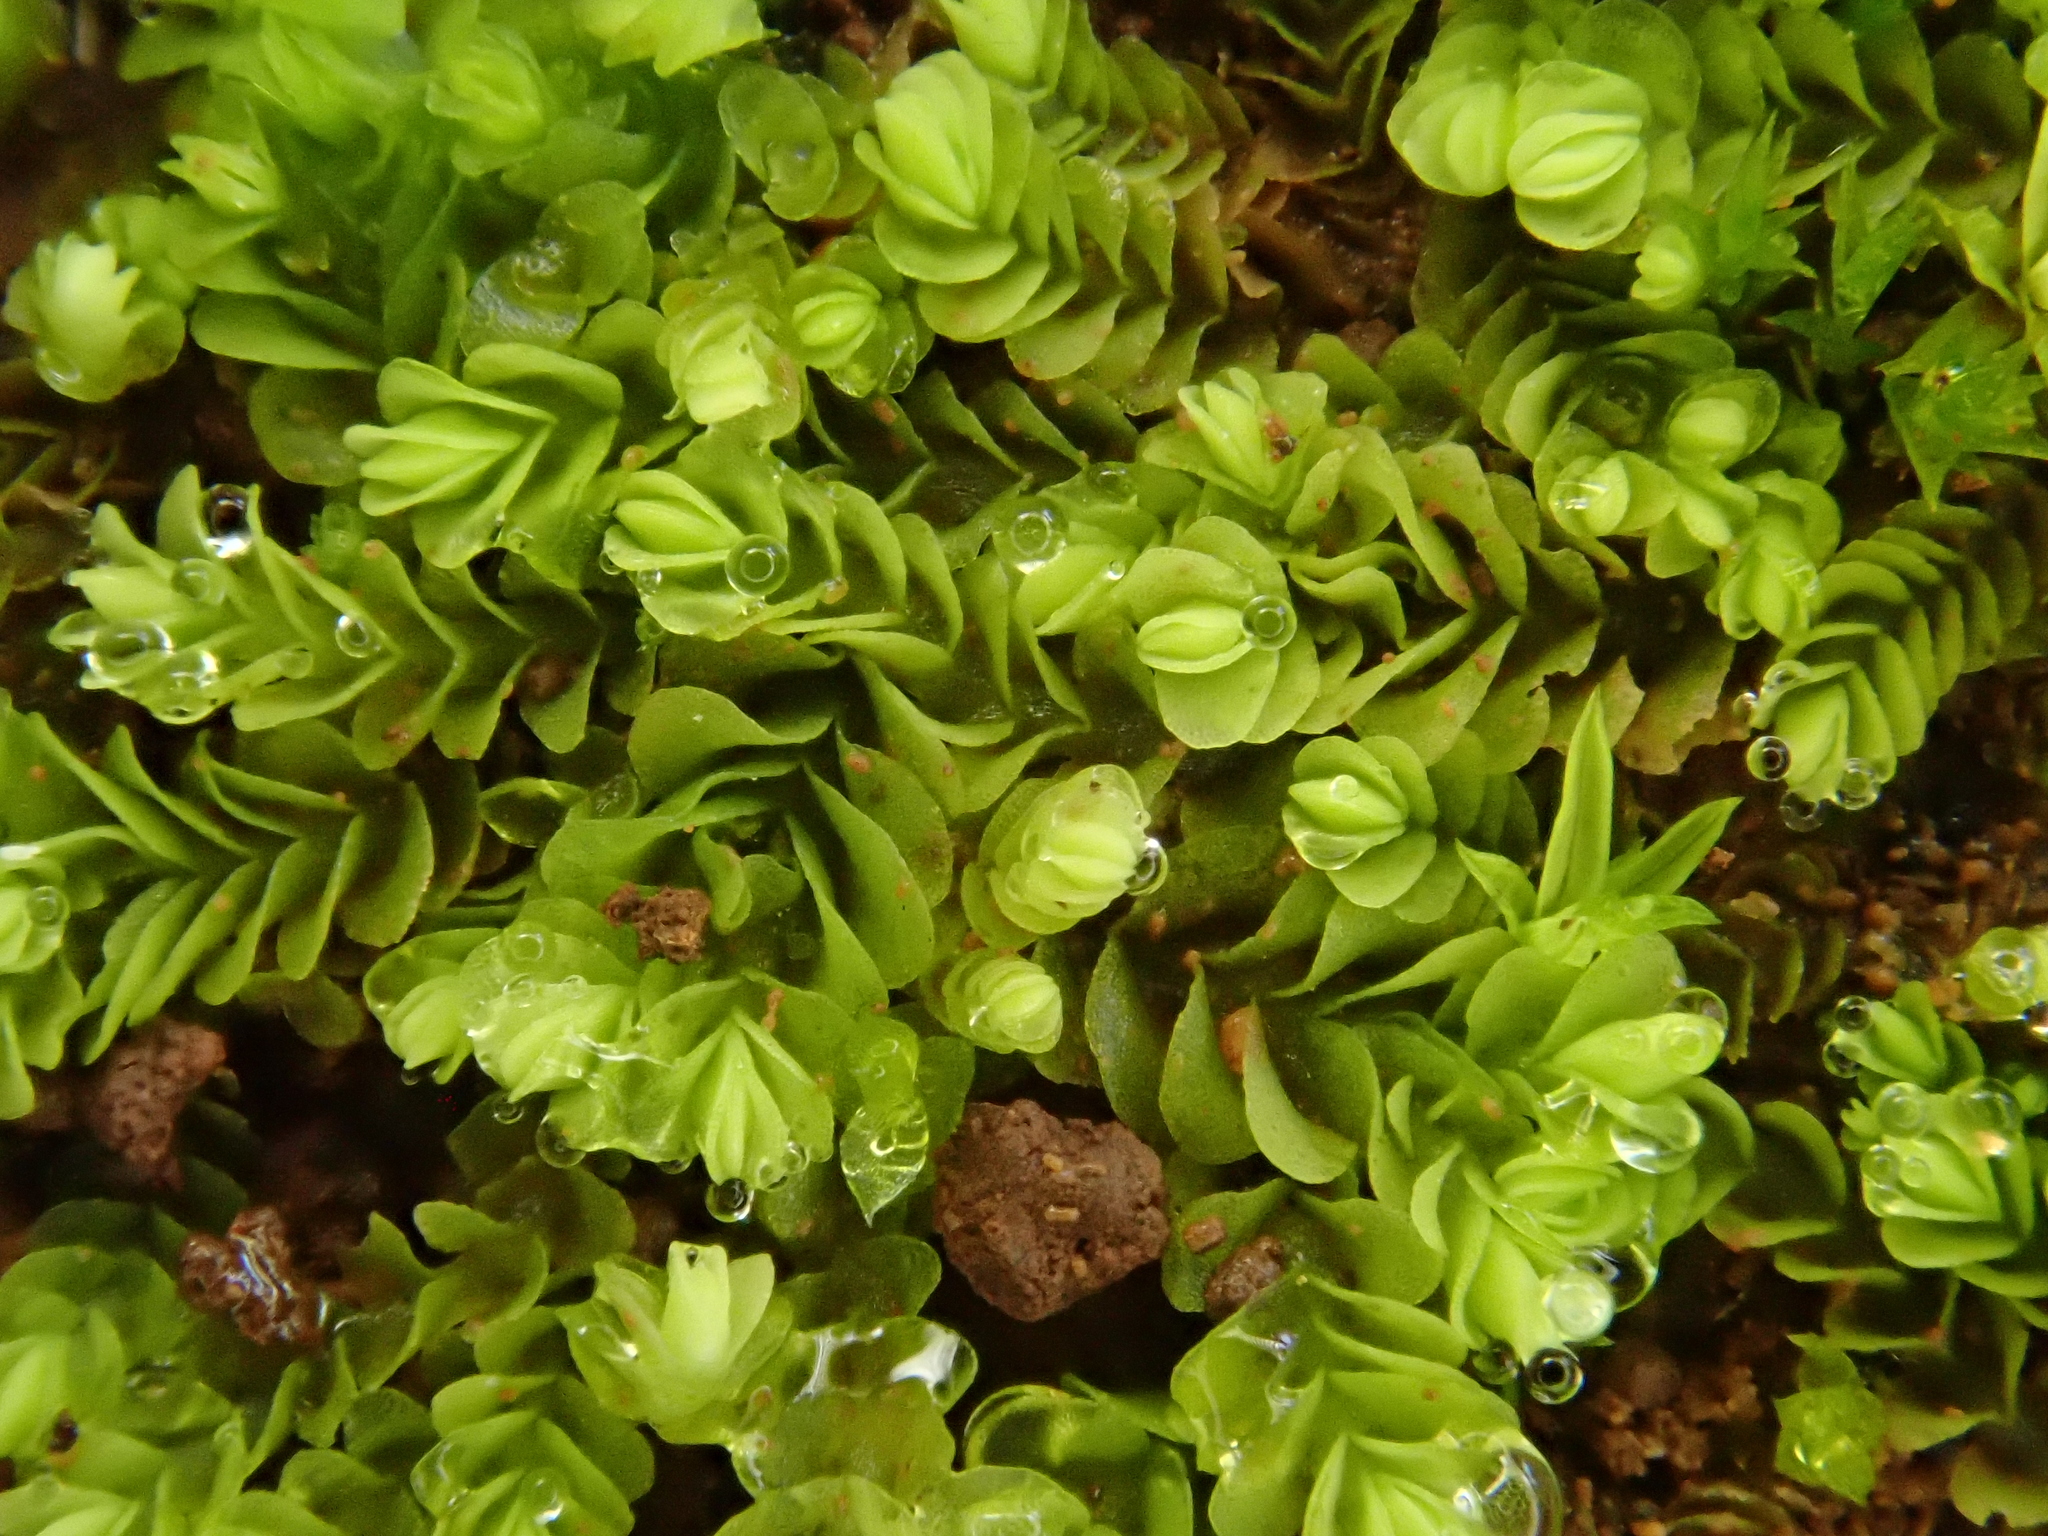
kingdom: Plantae
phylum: Marchantiophyta
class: Jungermanniopsida
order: Jungermanniales
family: Southbyaceae
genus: Gongylanthus
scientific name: Gongylanthus ericetorum
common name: Heath pouchwort
